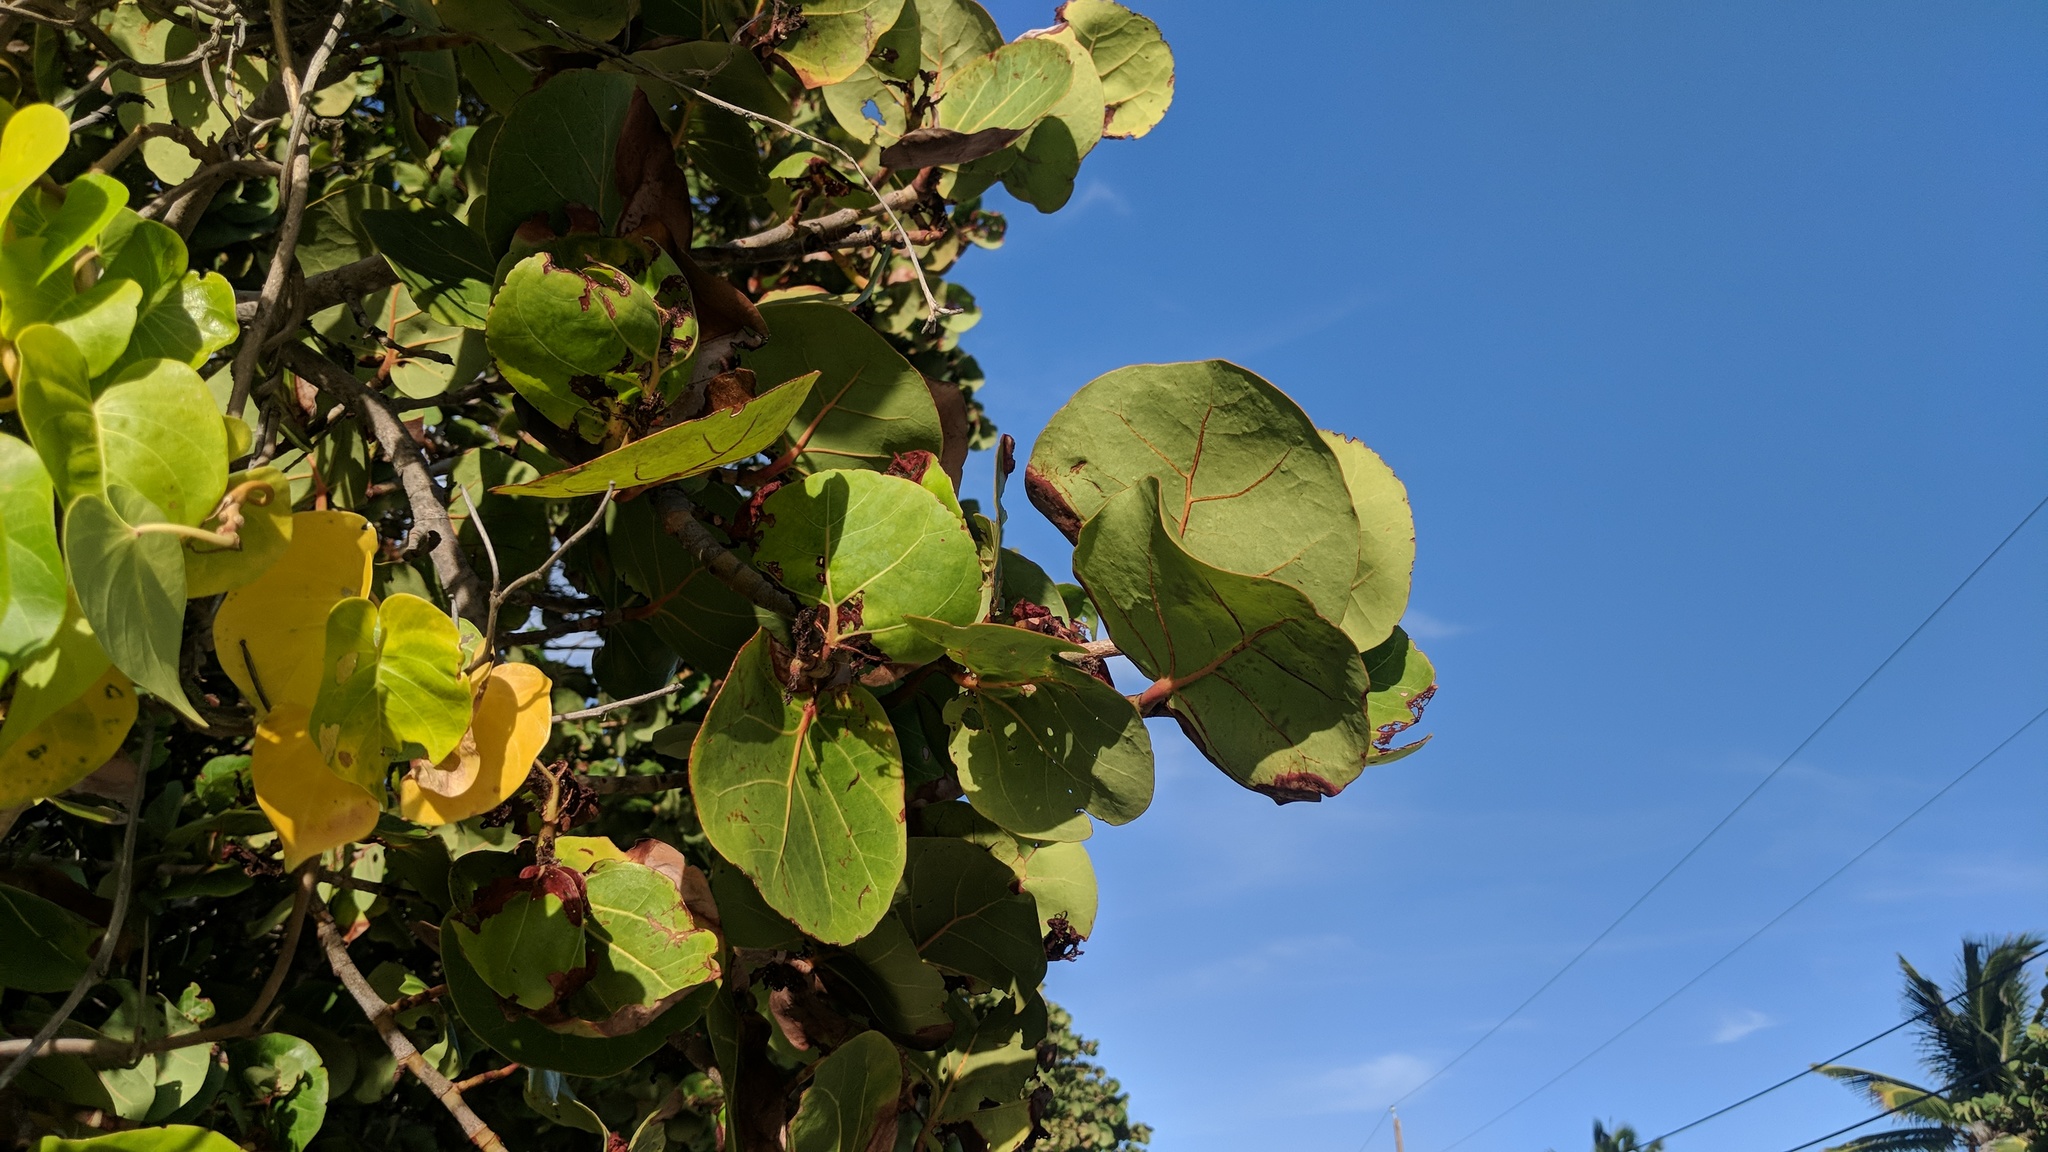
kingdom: Plantae
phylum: Tracheophyta
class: Magnoliopsida
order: Caryophyllales
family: Polygonaceae
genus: Coccoloba
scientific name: Coccoloba uvifera
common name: Seagrape
